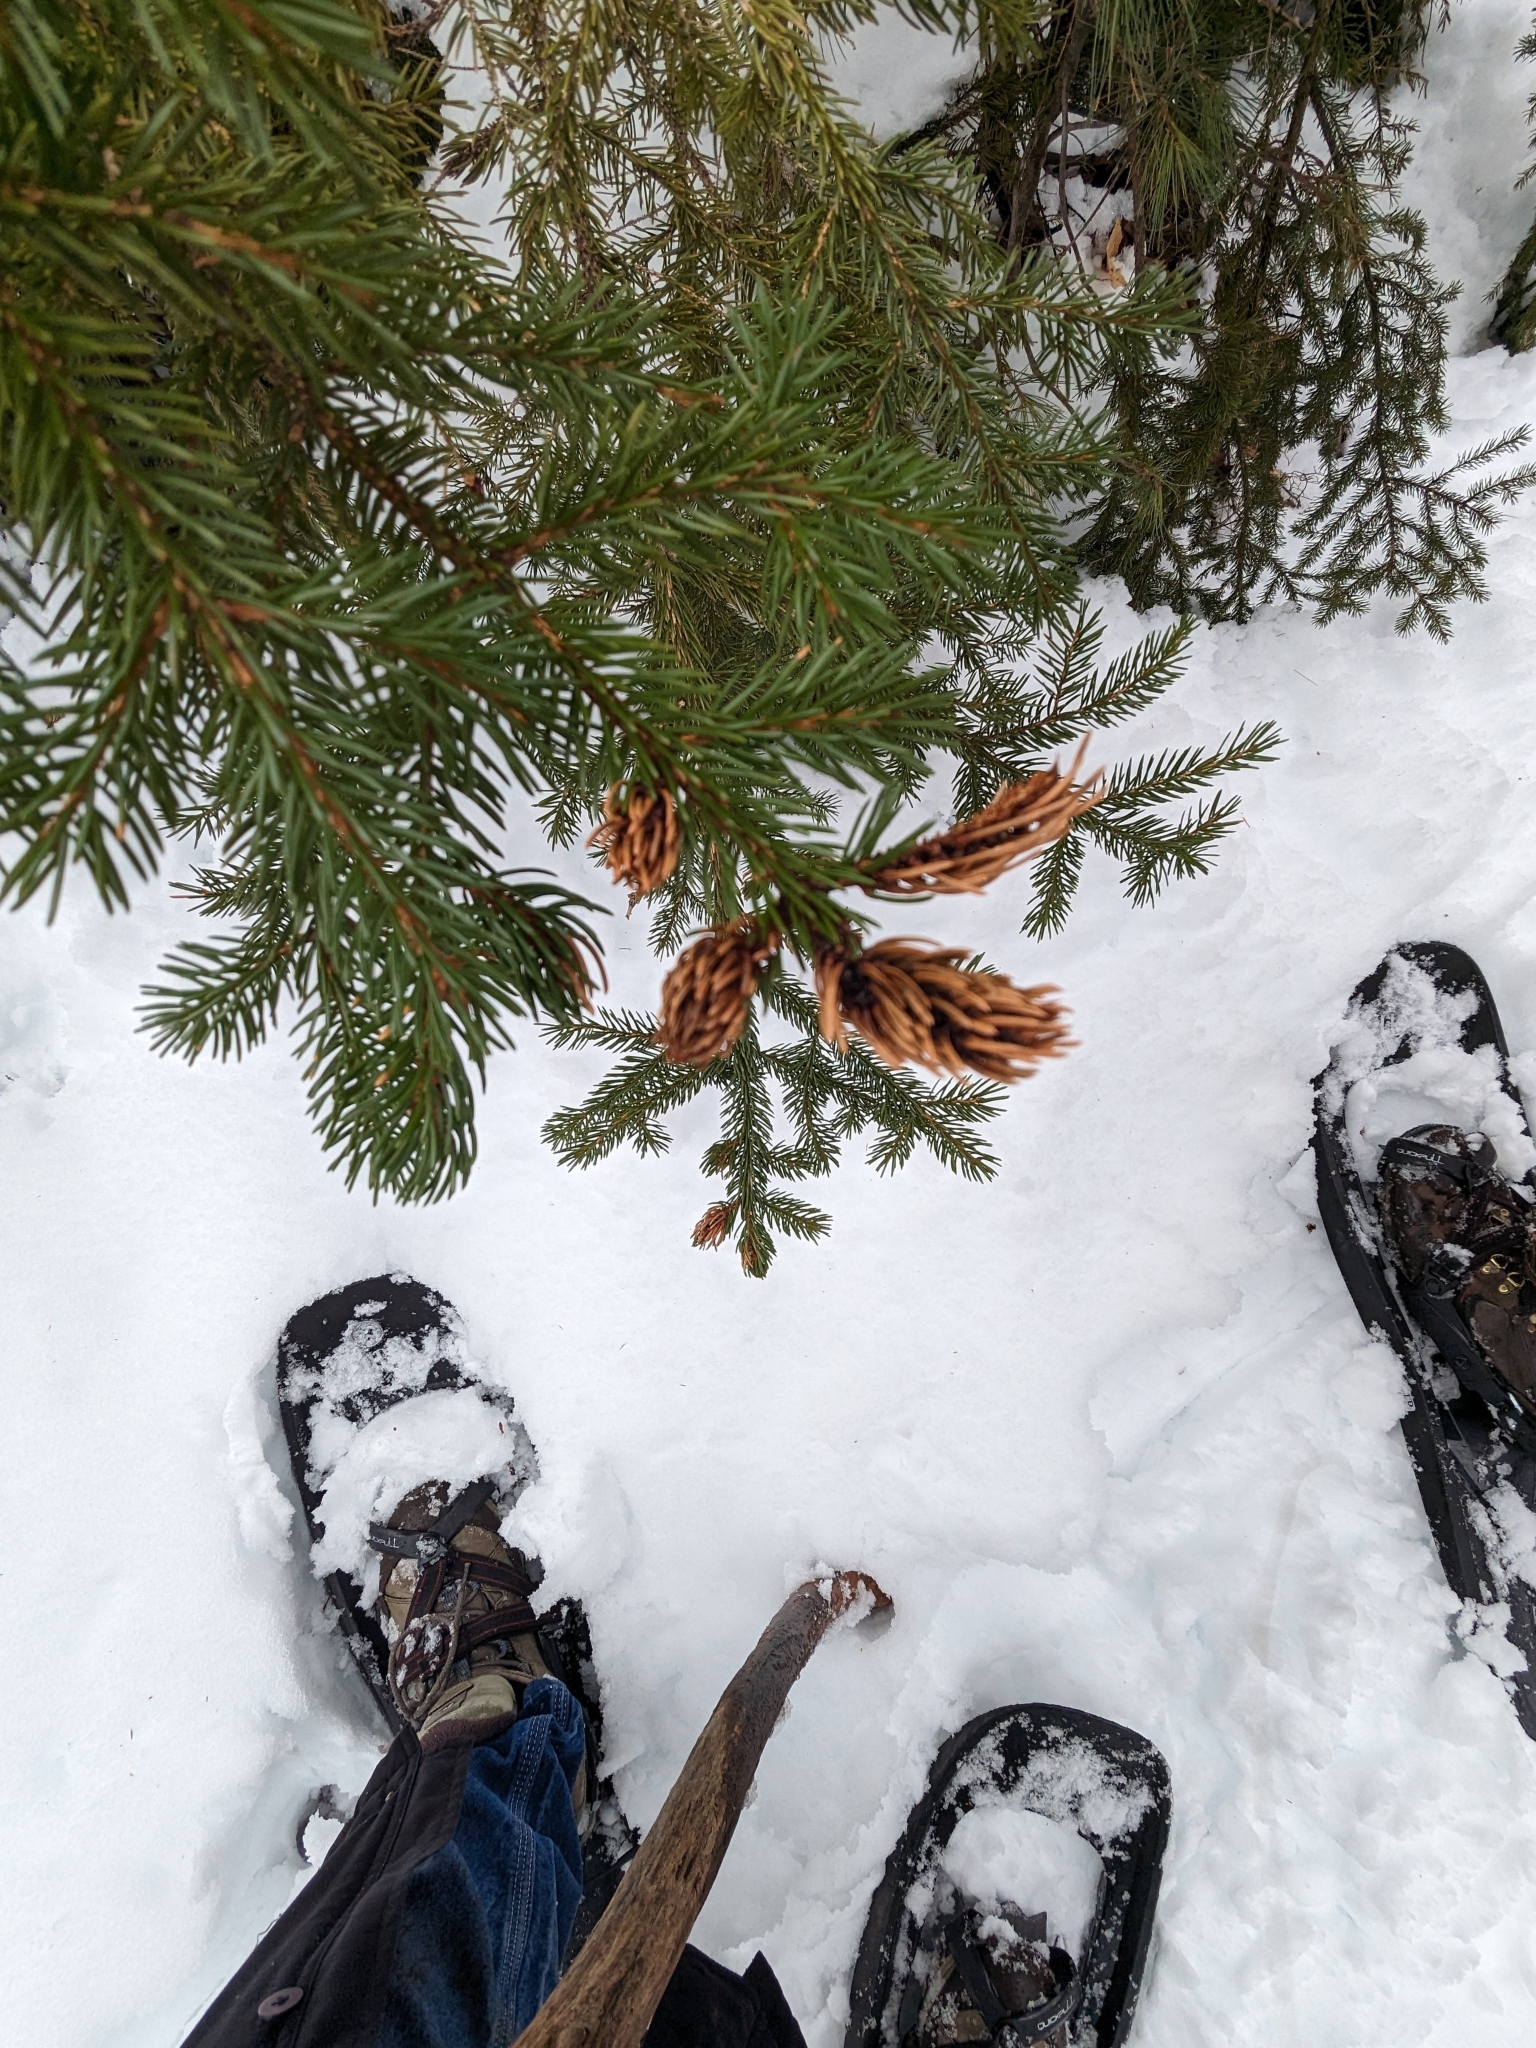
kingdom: Animalia
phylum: Arthropoda
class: Insecta
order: Hemiptera
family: Adelgidae
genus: Adelges
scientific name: Adelges abietis
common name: Eastern spruce gall adelgid
